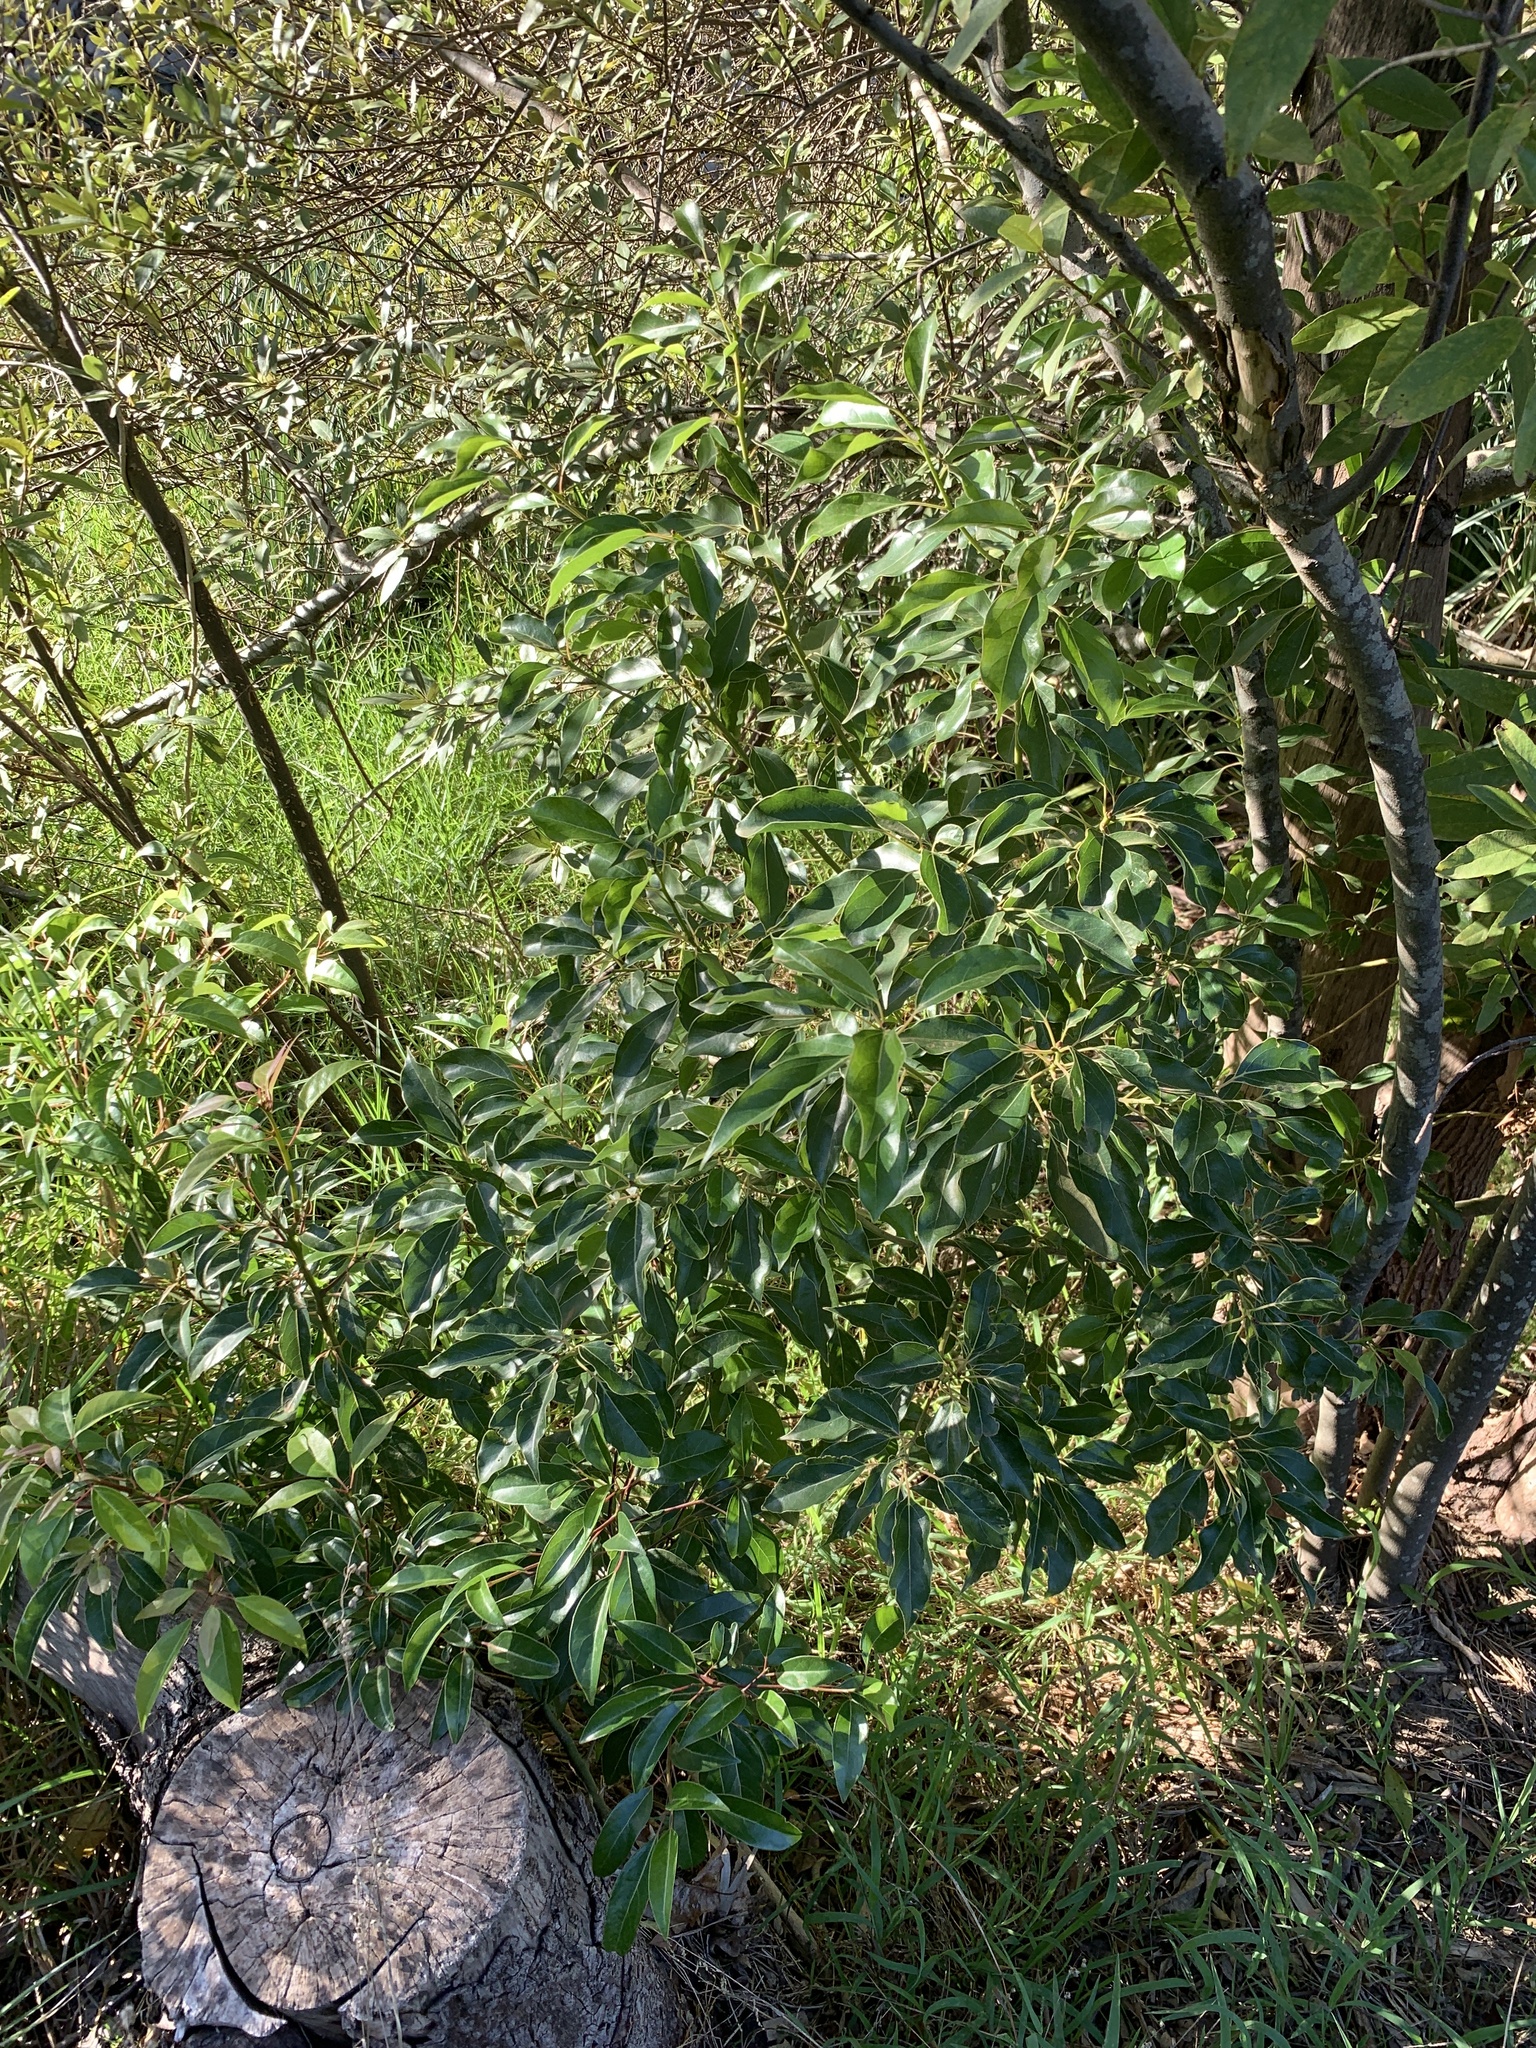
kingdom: Plantae
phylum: Tracheophyta
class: Magnoliopsida
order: Laurales
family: Lauraceae
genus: Cinnamomum
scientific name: Cinnamomum camphora
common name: Camphortree
